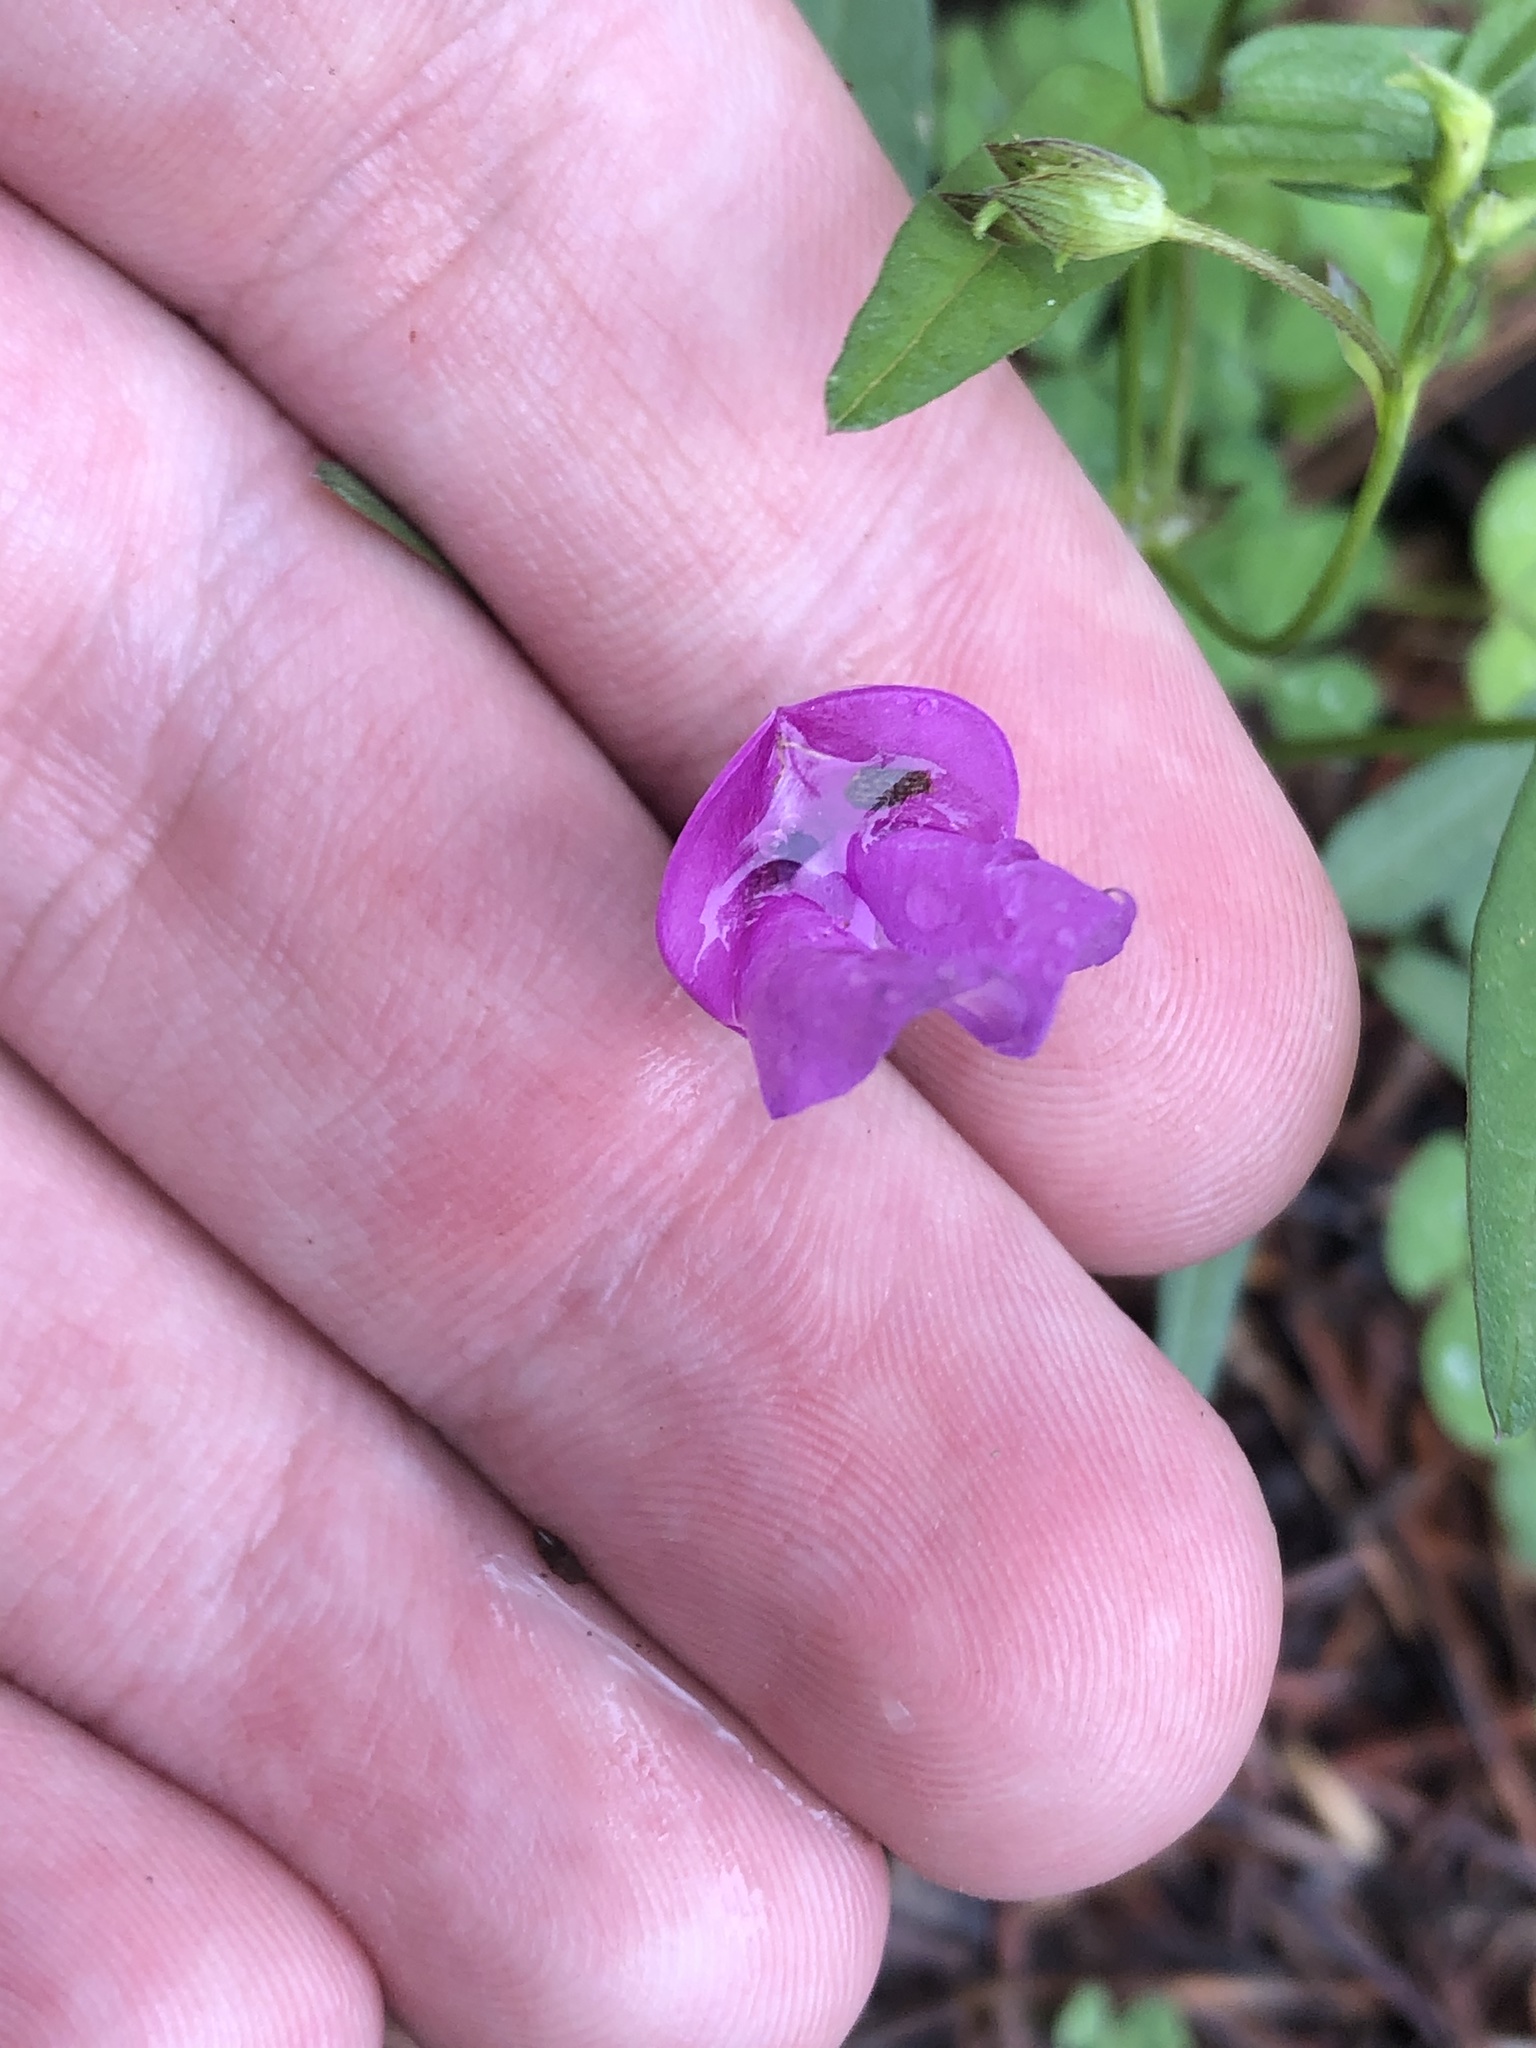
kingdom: Plantae
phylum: Tracheophyta
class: Magnoliopsida
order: Fabales
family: Fabaceae
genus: Phaseolus
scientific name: Phaseolus parvulus
